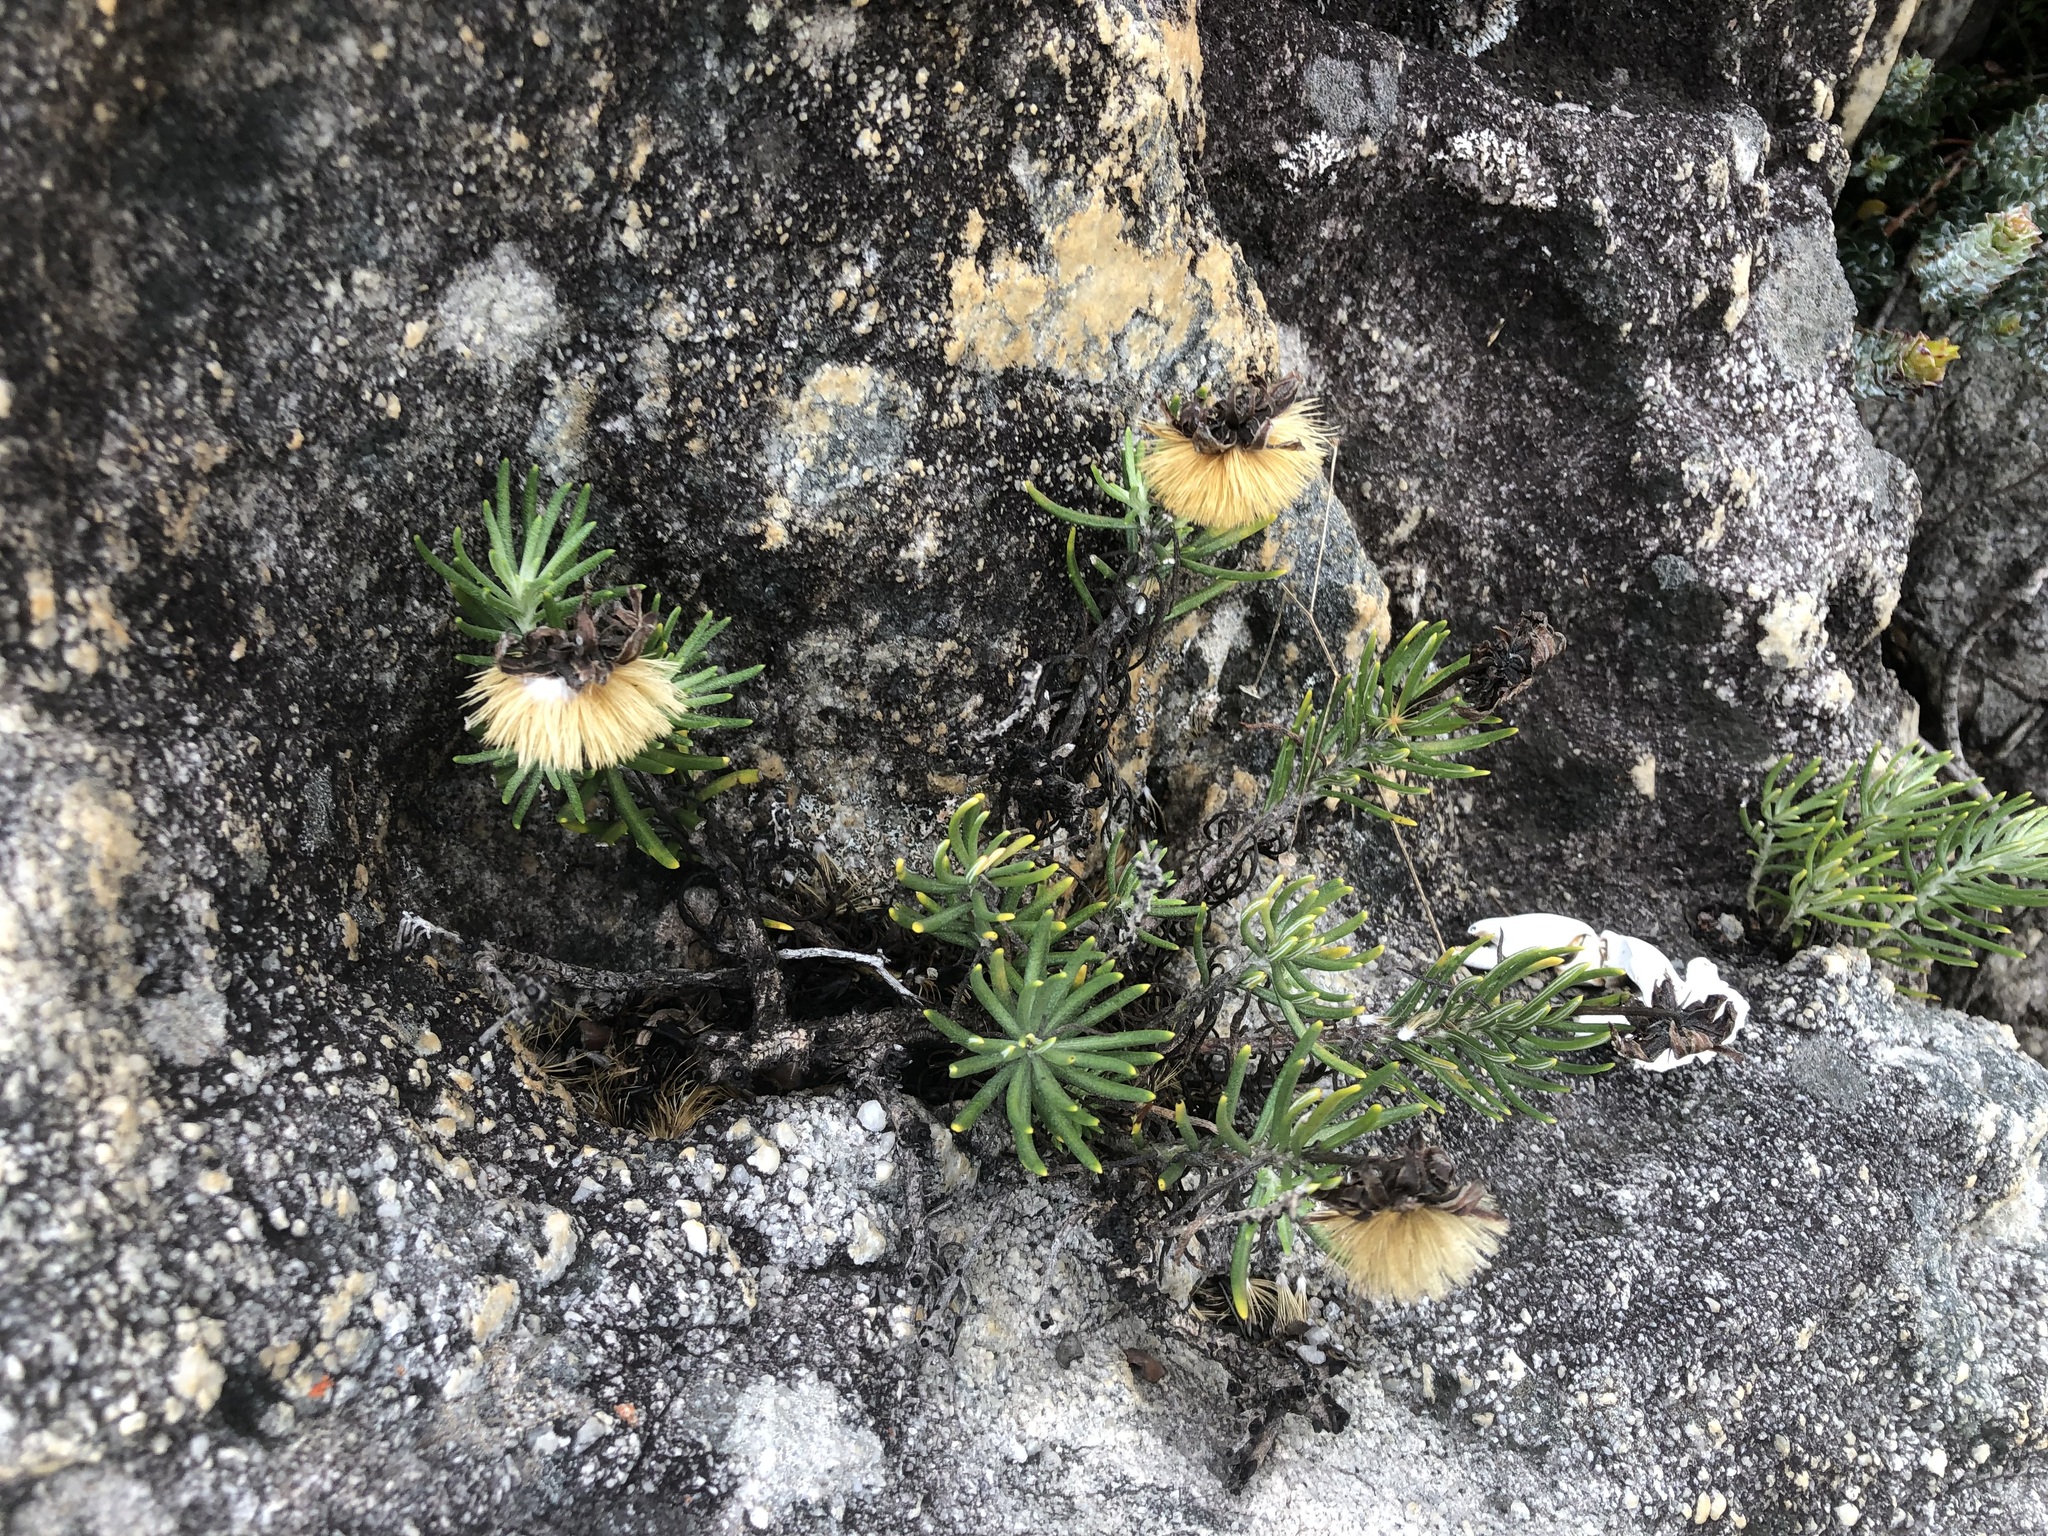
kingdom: Plantae
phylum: Tracheophyta
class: Magnoliopsida
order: Asterales
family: Asteraceae
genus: Heterolepis
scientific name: Heterolepis aliena
